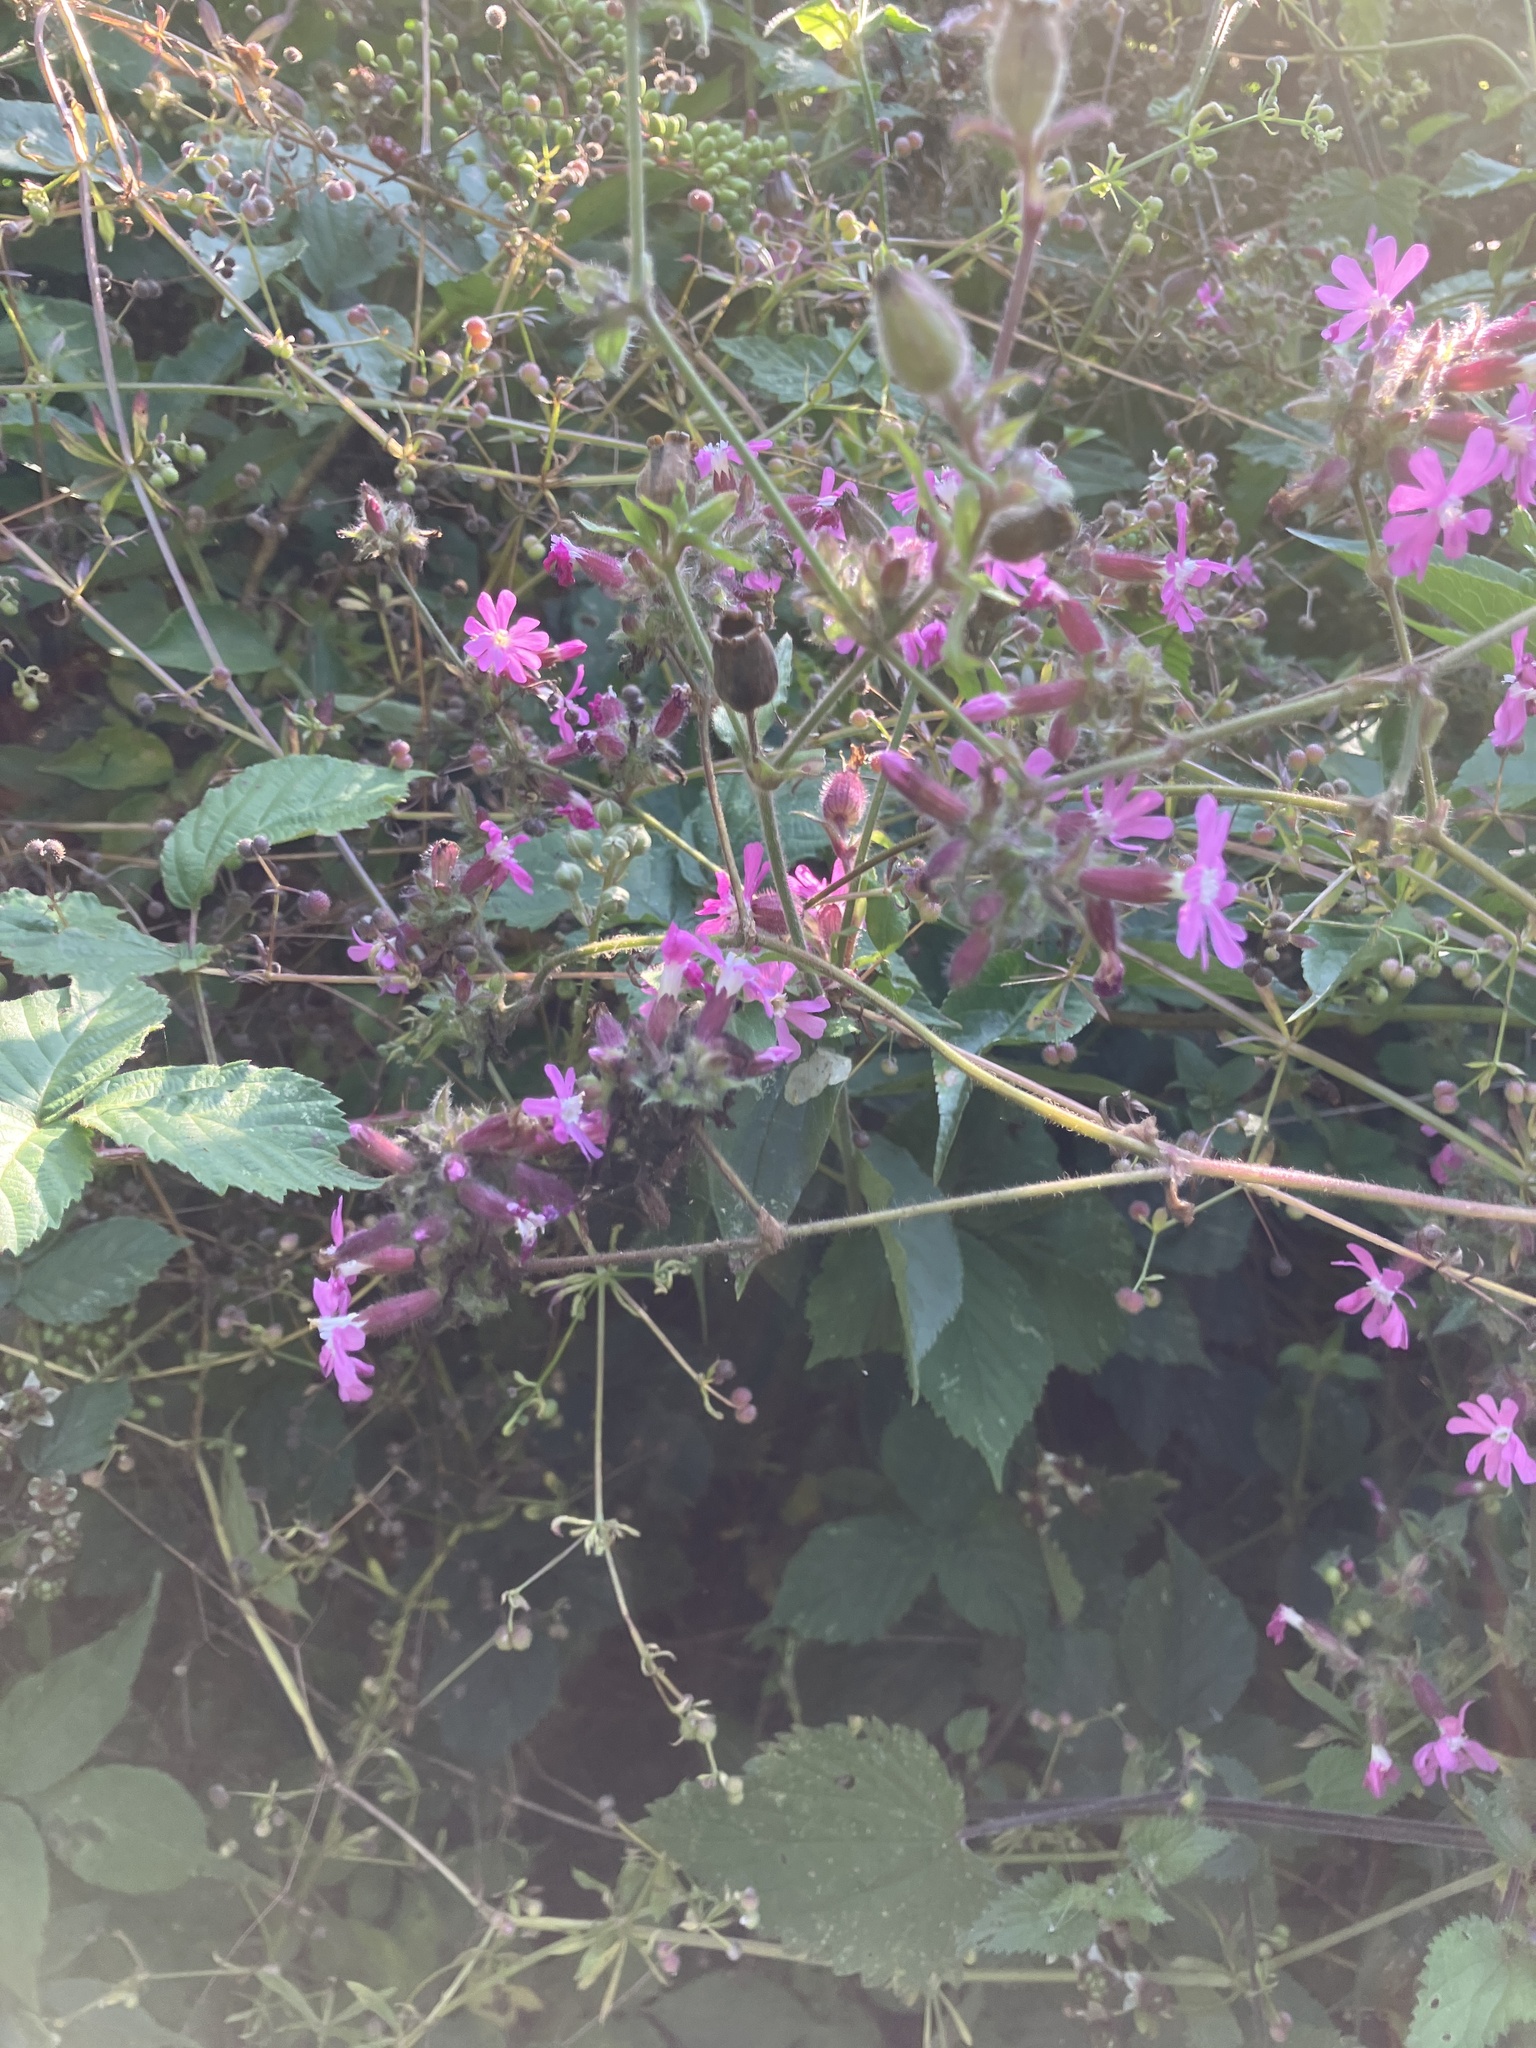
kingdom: Plantae
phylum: Tracheophyta
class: Magnoliopsida
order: Caryophyllales
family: Caryophyllaceae
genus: Silene
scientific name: Silene dioica
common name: Red campion
